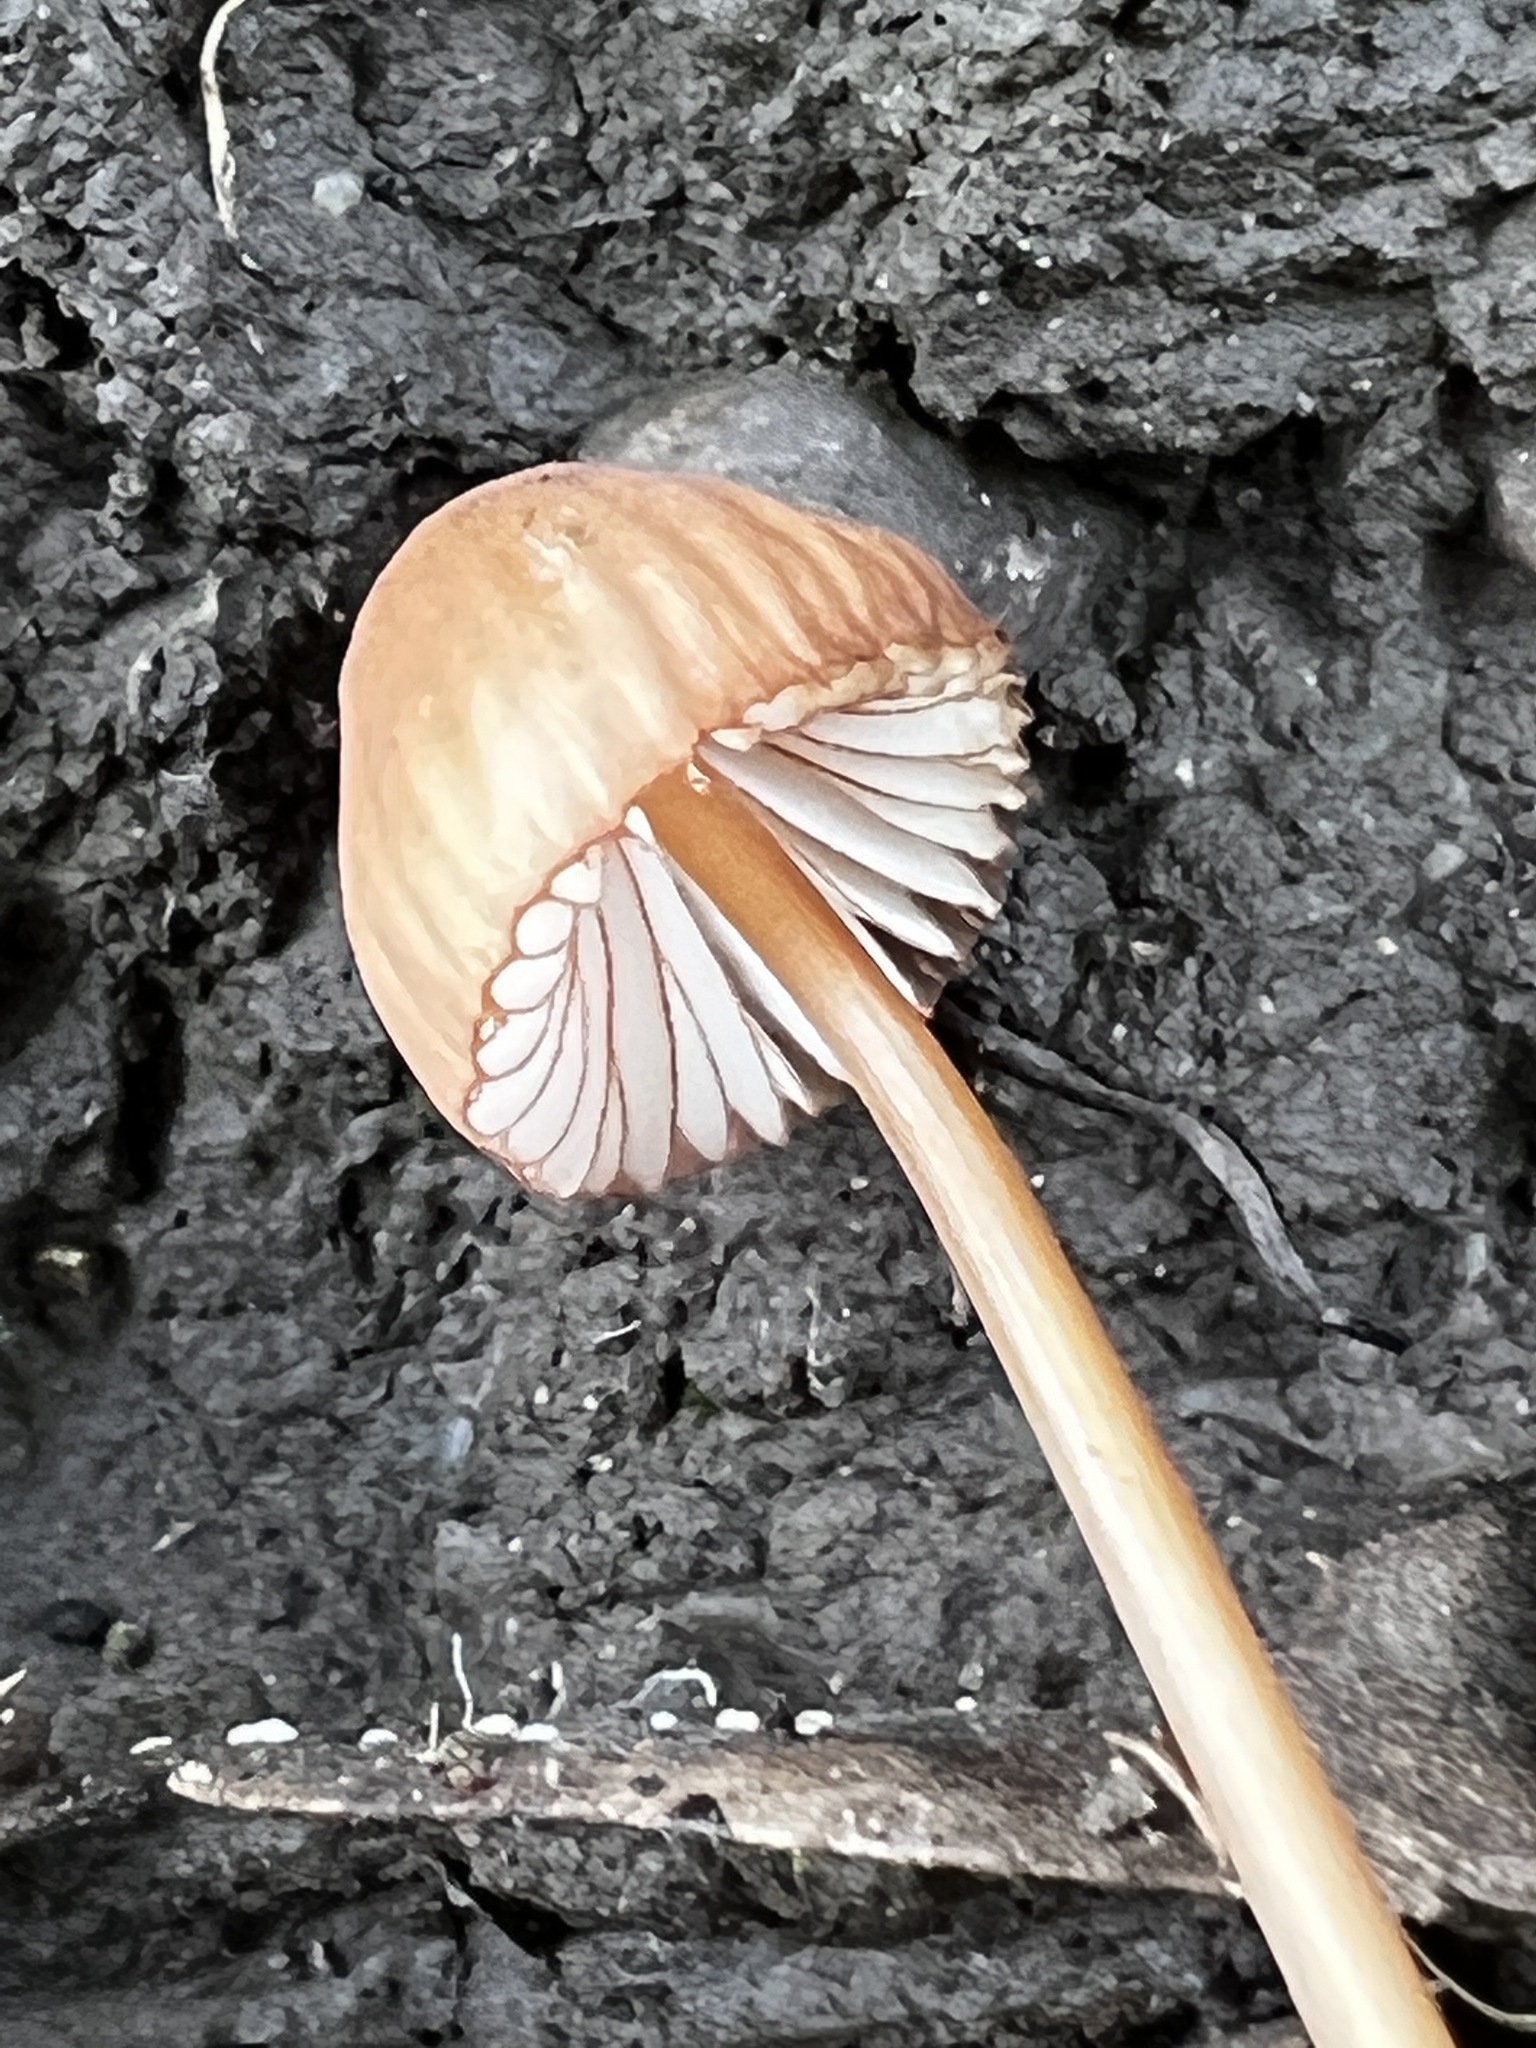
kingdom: Fungi
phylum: Basidiomycota
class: Agaricomycetes
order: Agaricales
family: Mycenaceae
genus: Mycena
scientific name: Mycena
